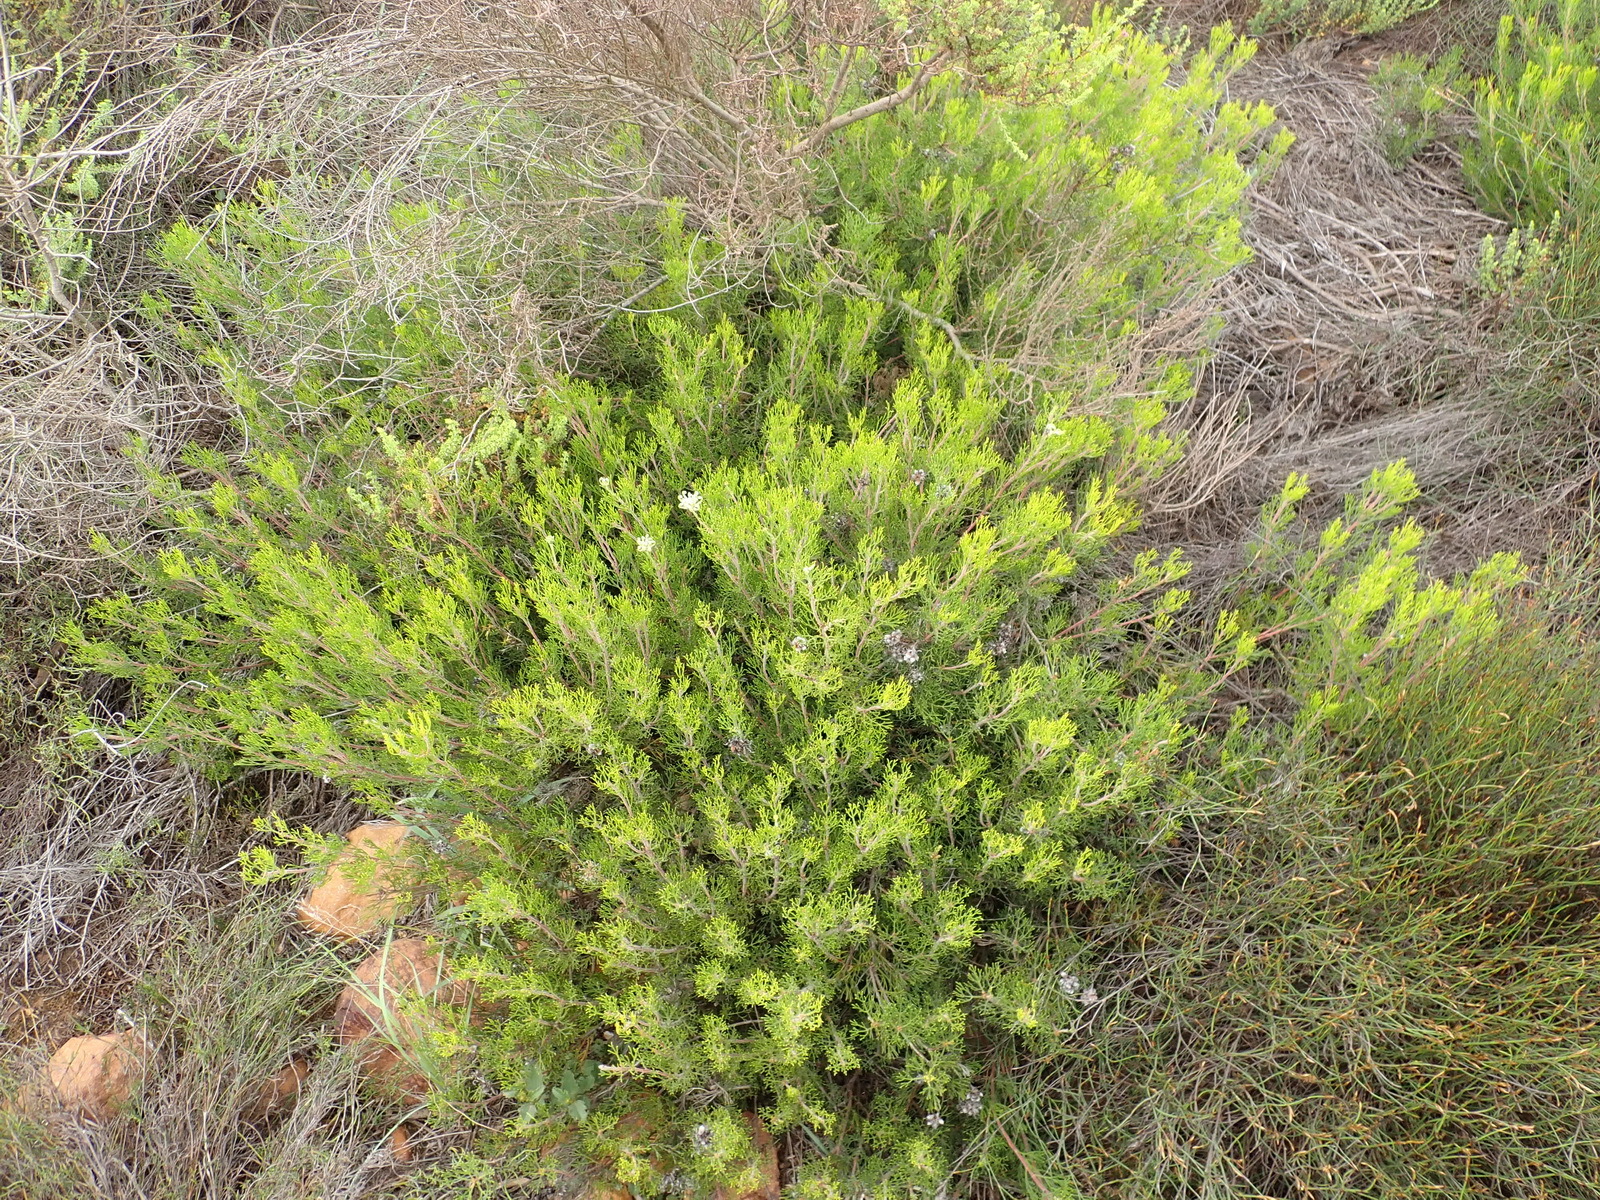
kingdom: Plantae
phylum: Tracheophyta
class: Magnoliopsida
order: Proteales
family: Proteaceae
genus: Serruria
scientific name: Serruria
